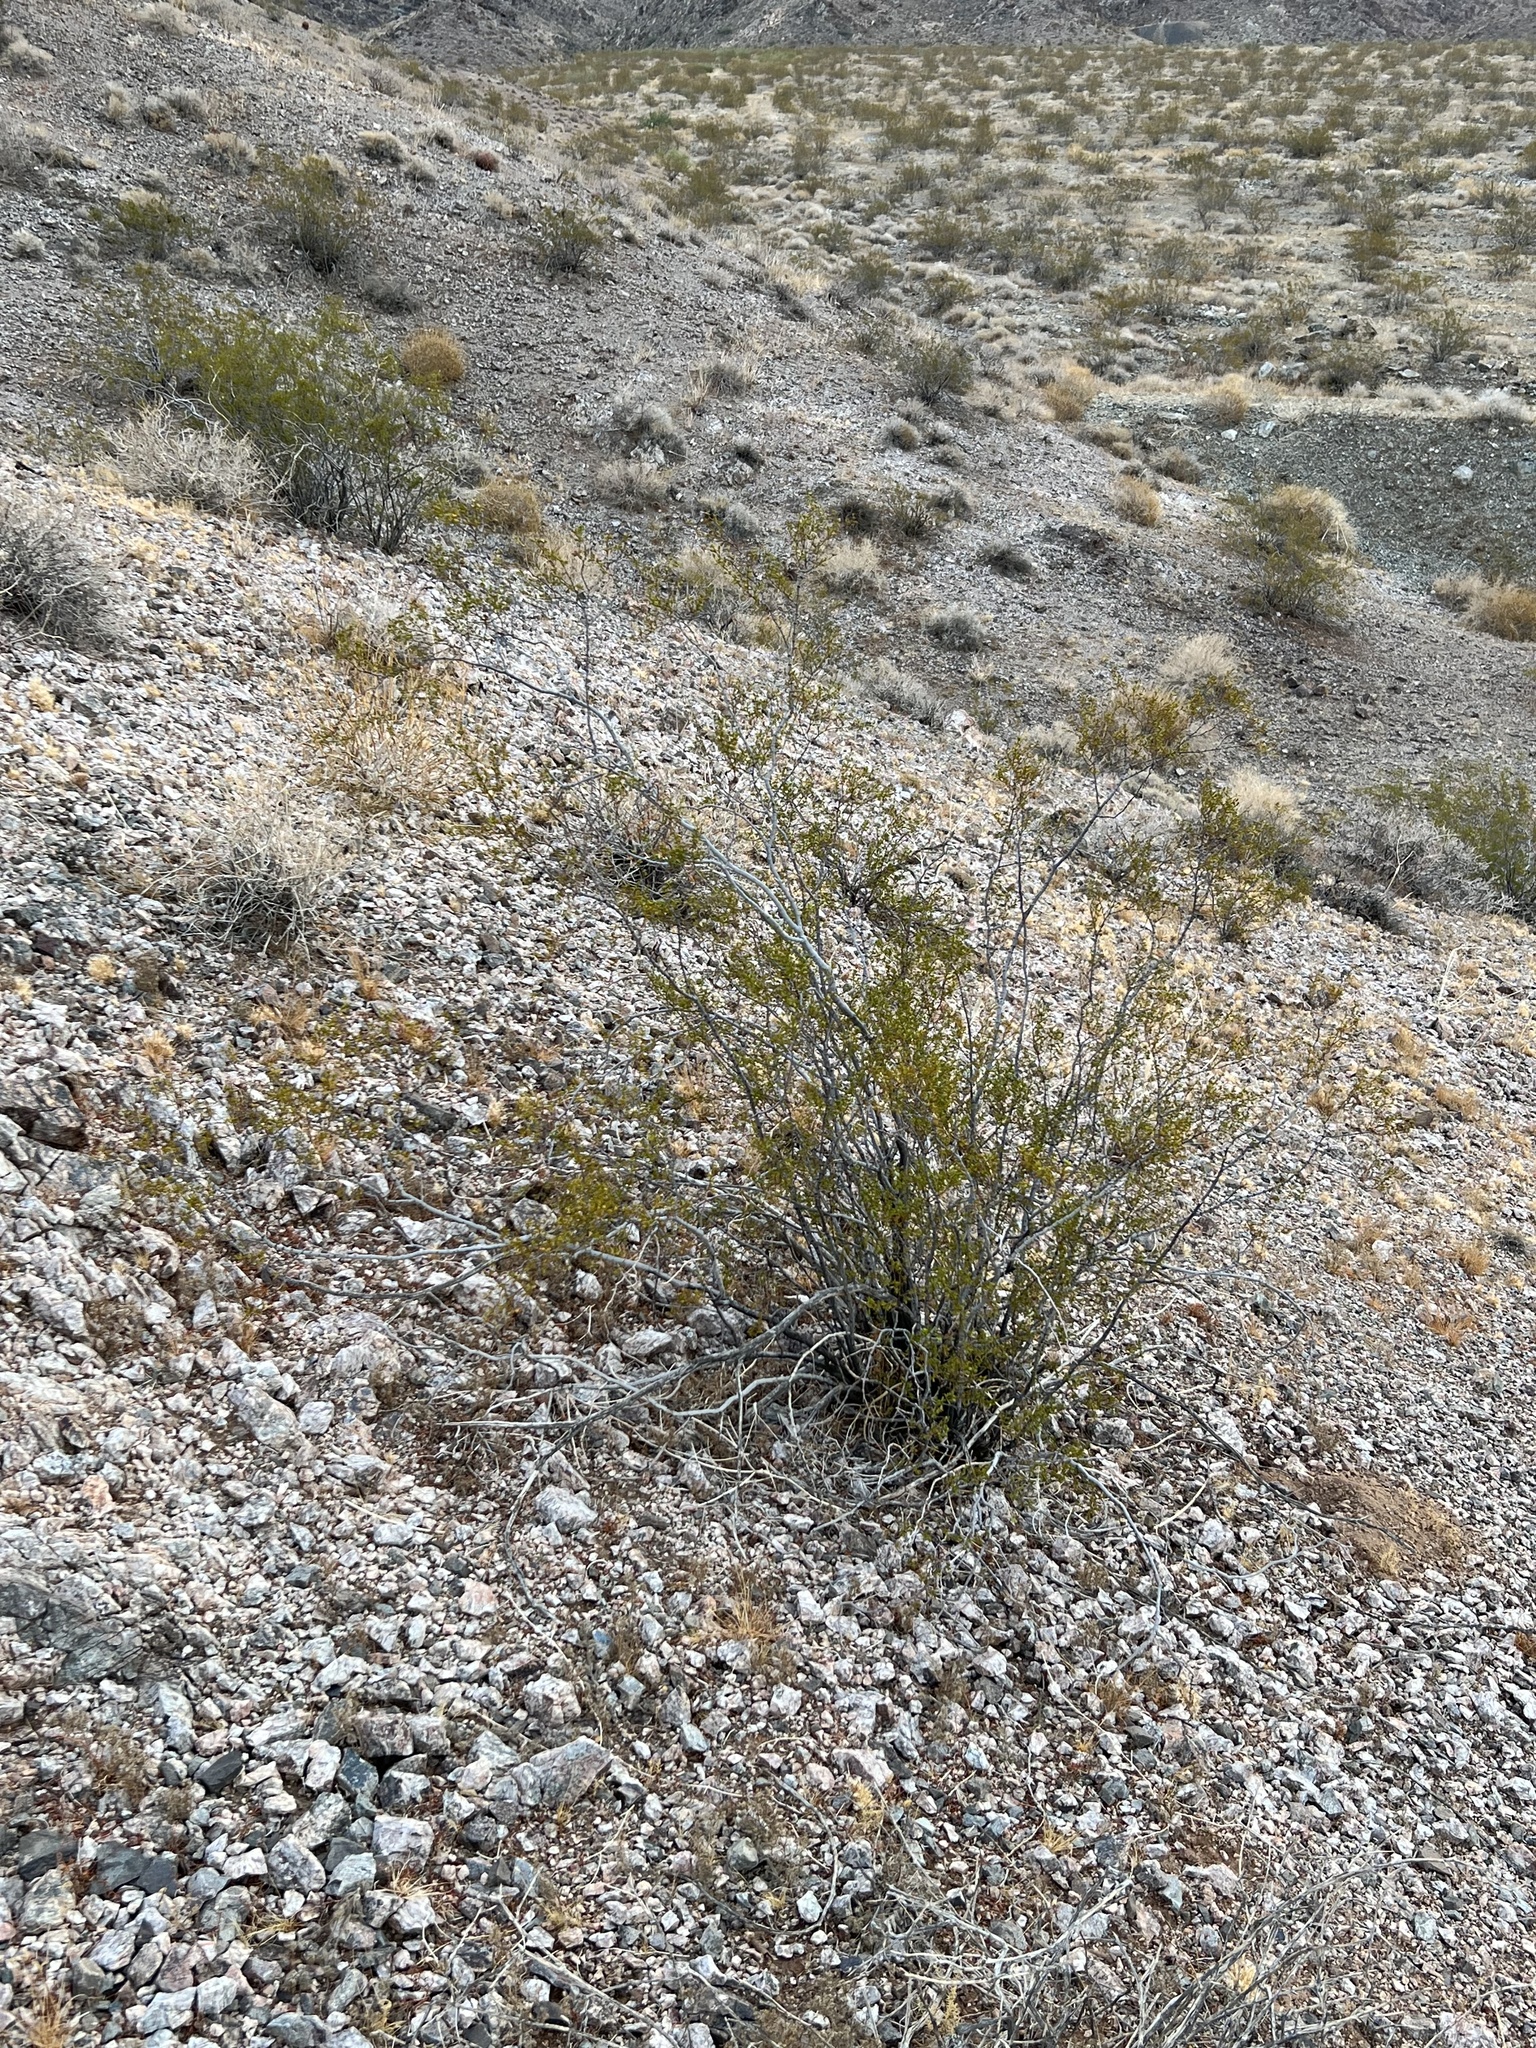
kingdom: Plantae
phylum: Tracheophyta
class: Magnoliopsida
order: Zygophyllales
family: Zygophyllaceae
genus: Larrea
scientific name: Larrea tridentata
